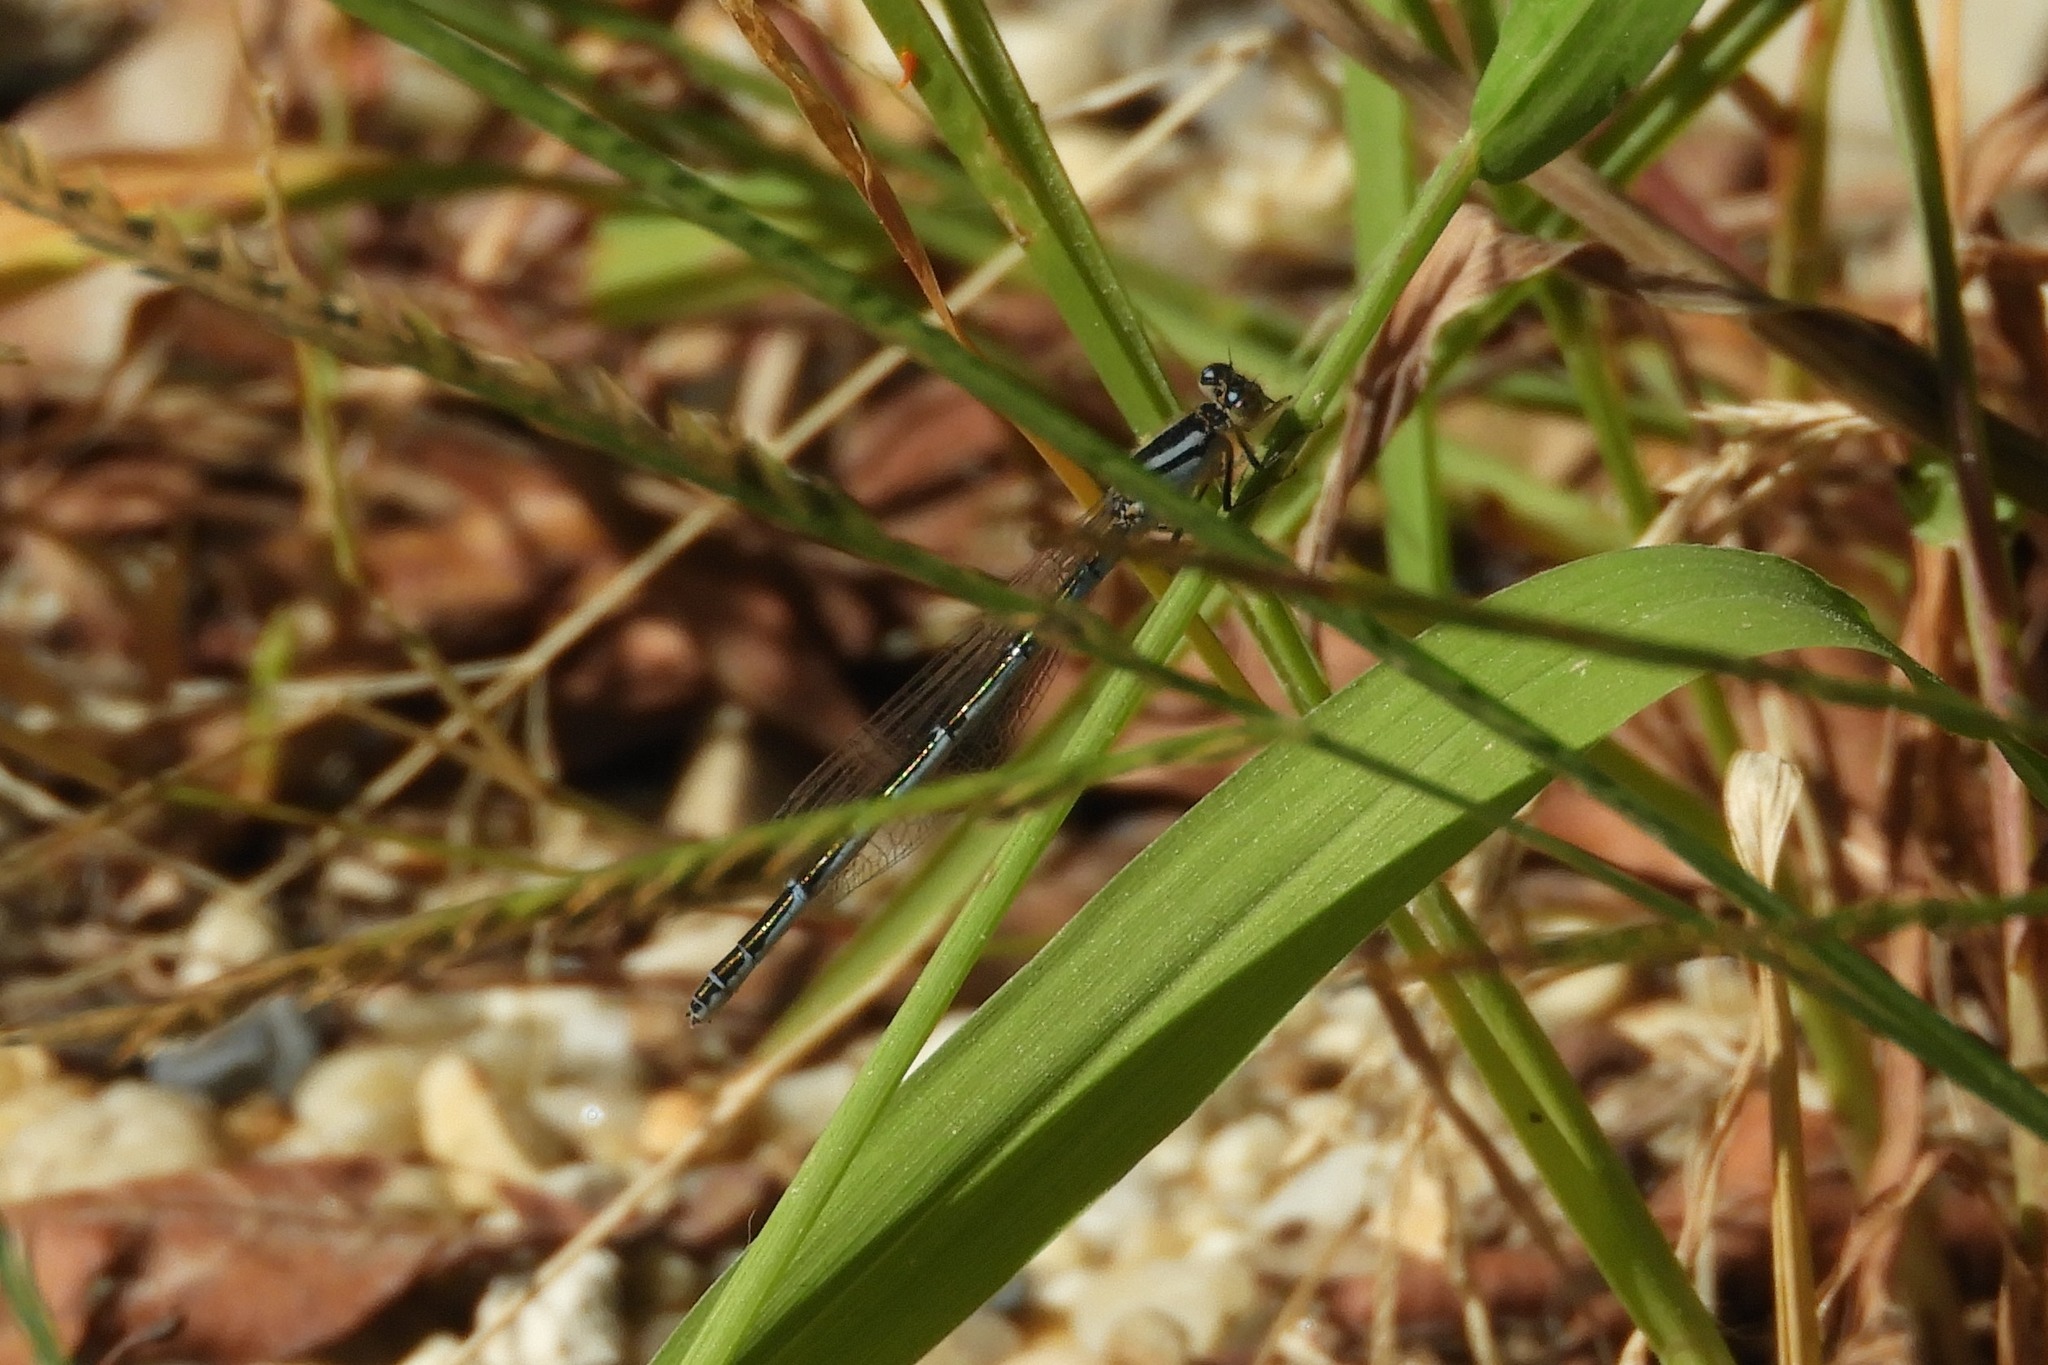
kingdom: Animalia
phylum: Arthropoda
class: Insecta
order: Odonata
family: Coenagrionidae
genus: Enallagma
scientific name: Enallagma
